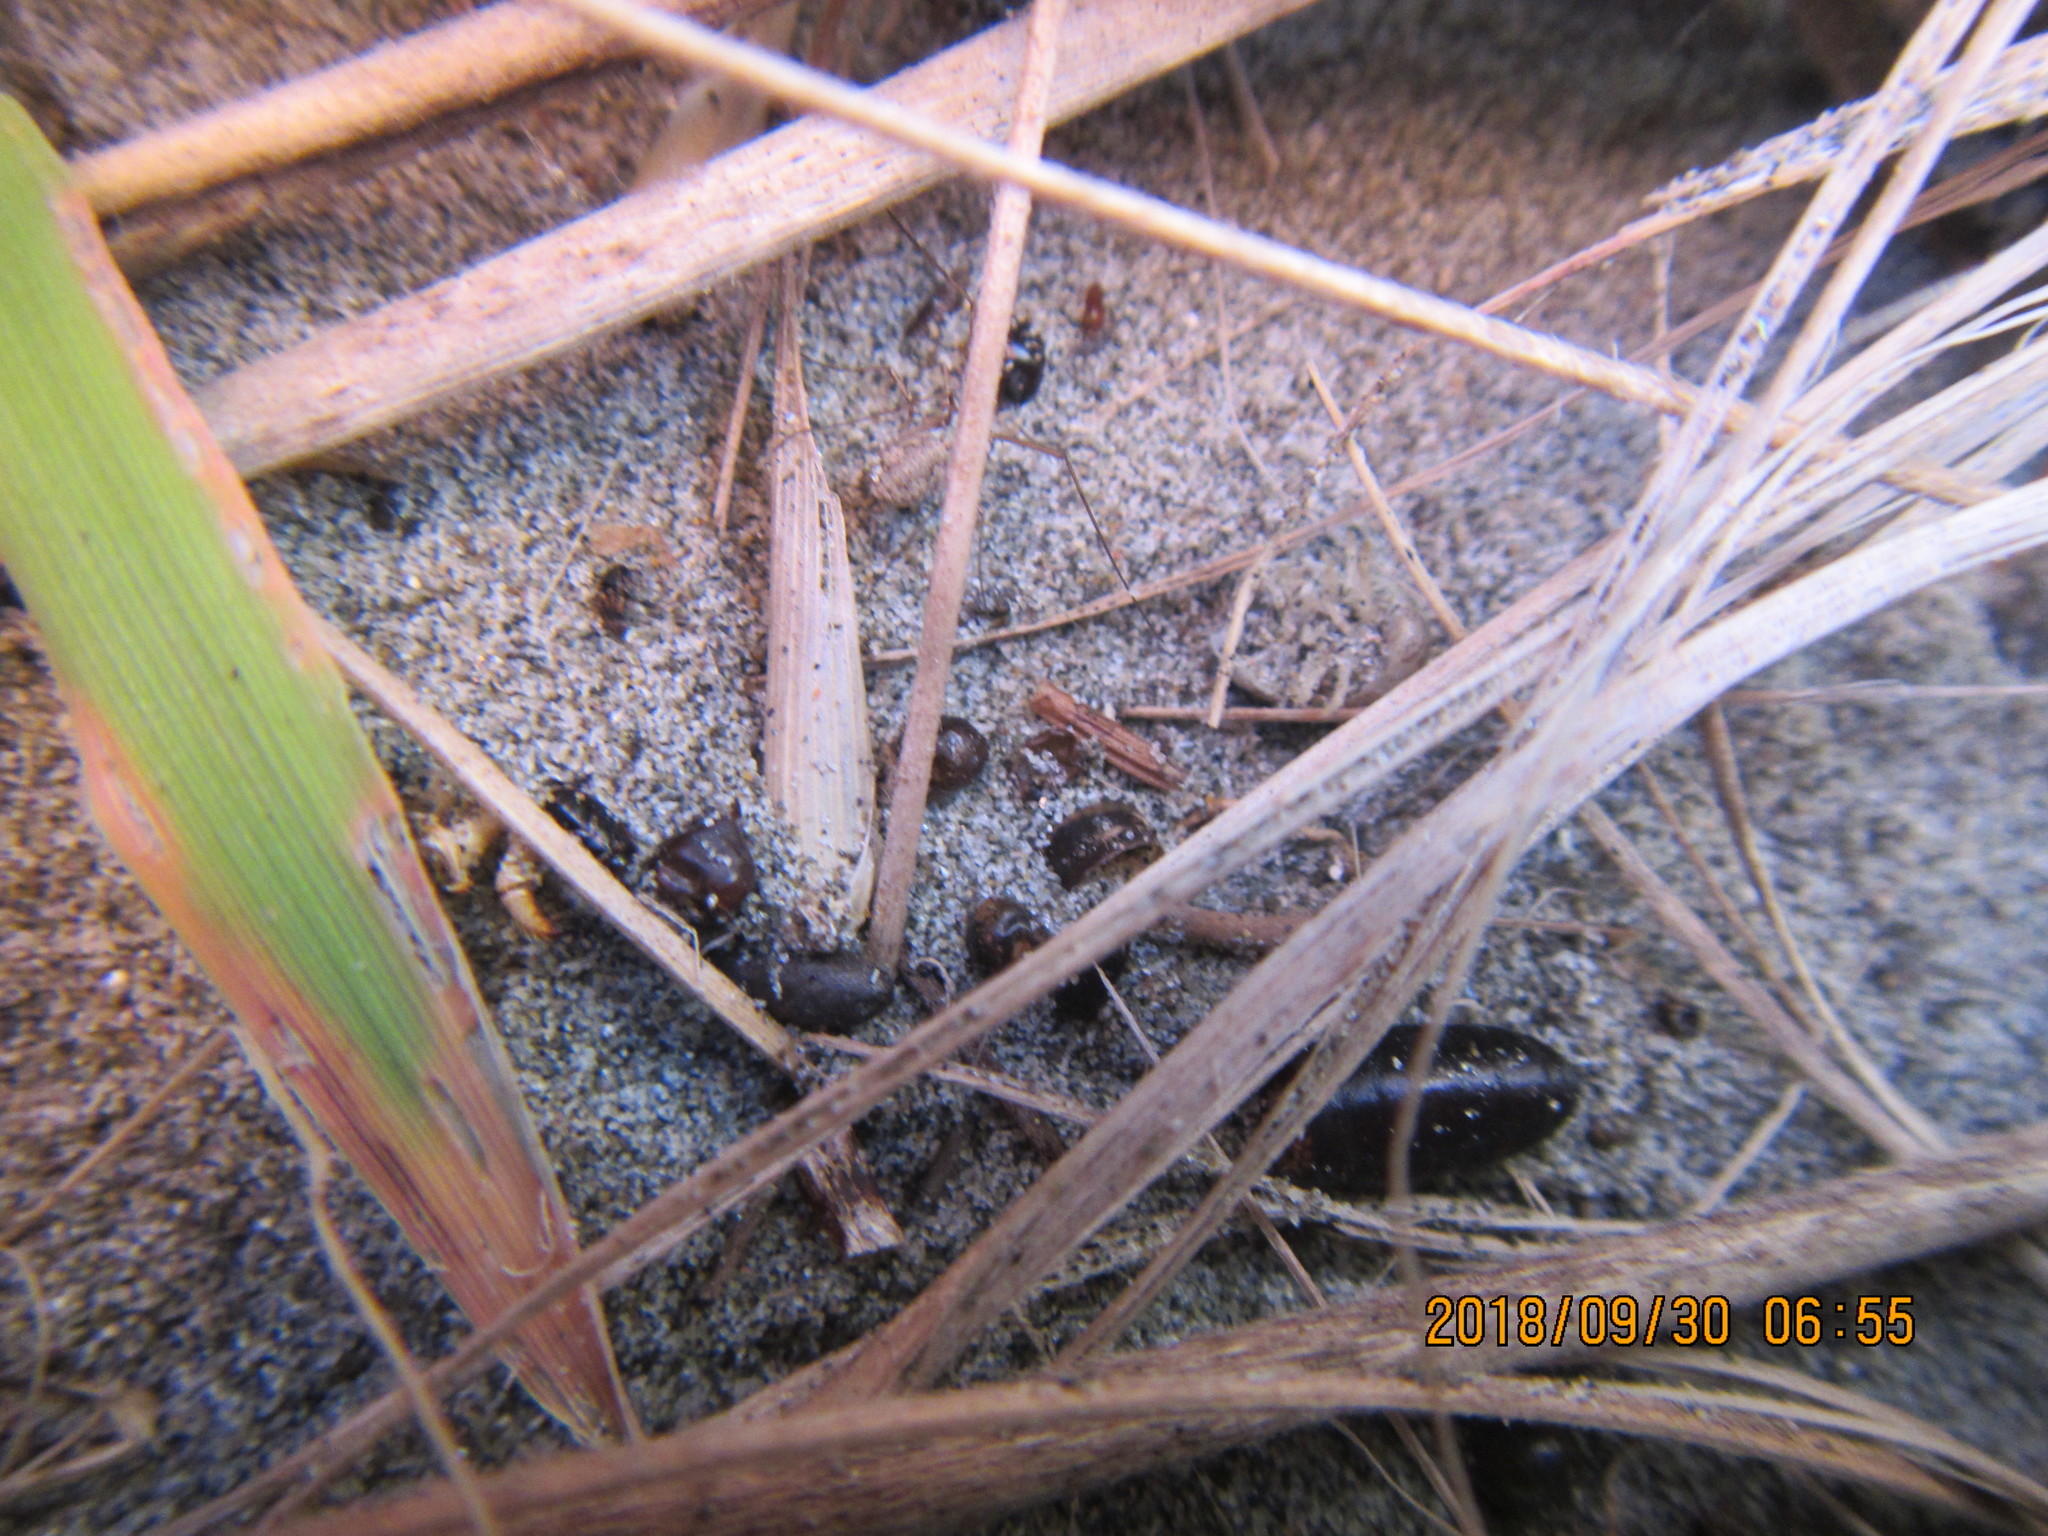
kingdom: Animalia
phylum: Arthropoda
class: Arachnida
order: Opiliones
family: Phalangiidae
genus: Phalangium
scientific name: Phalangium opilio
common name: Daddy longleg
